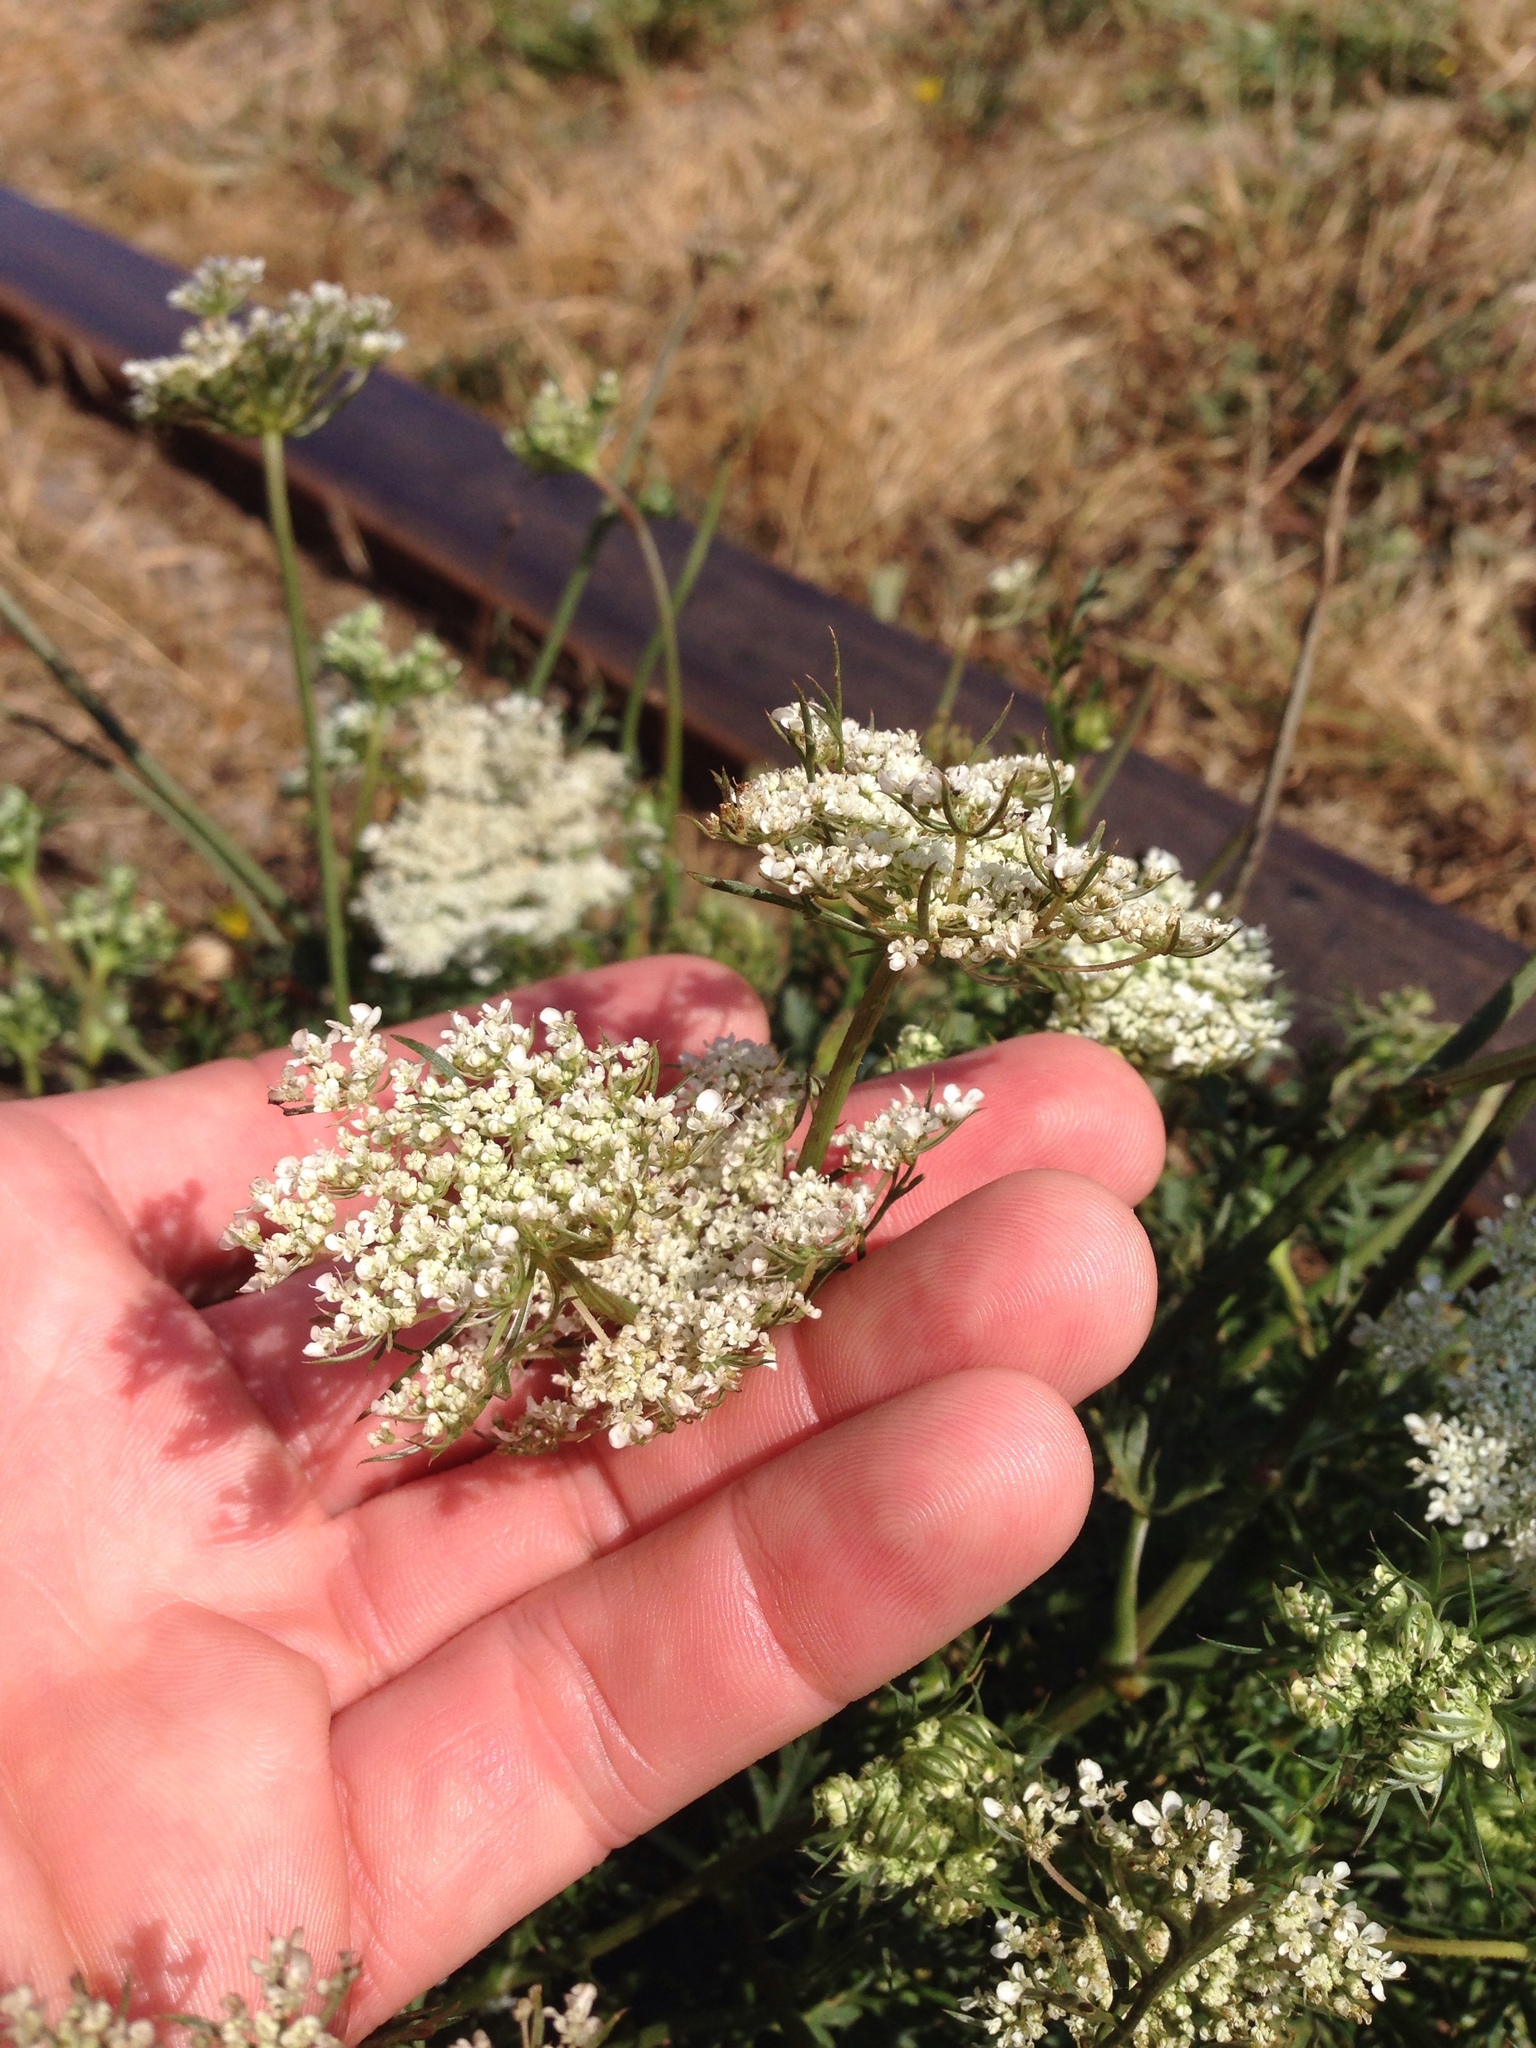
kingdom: Plantae
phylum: Tracheophyta
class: Magnoliopsida
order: Apiales
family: Apiaceae
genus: Daucus
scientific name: Daucus carota
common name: Wild carrot
